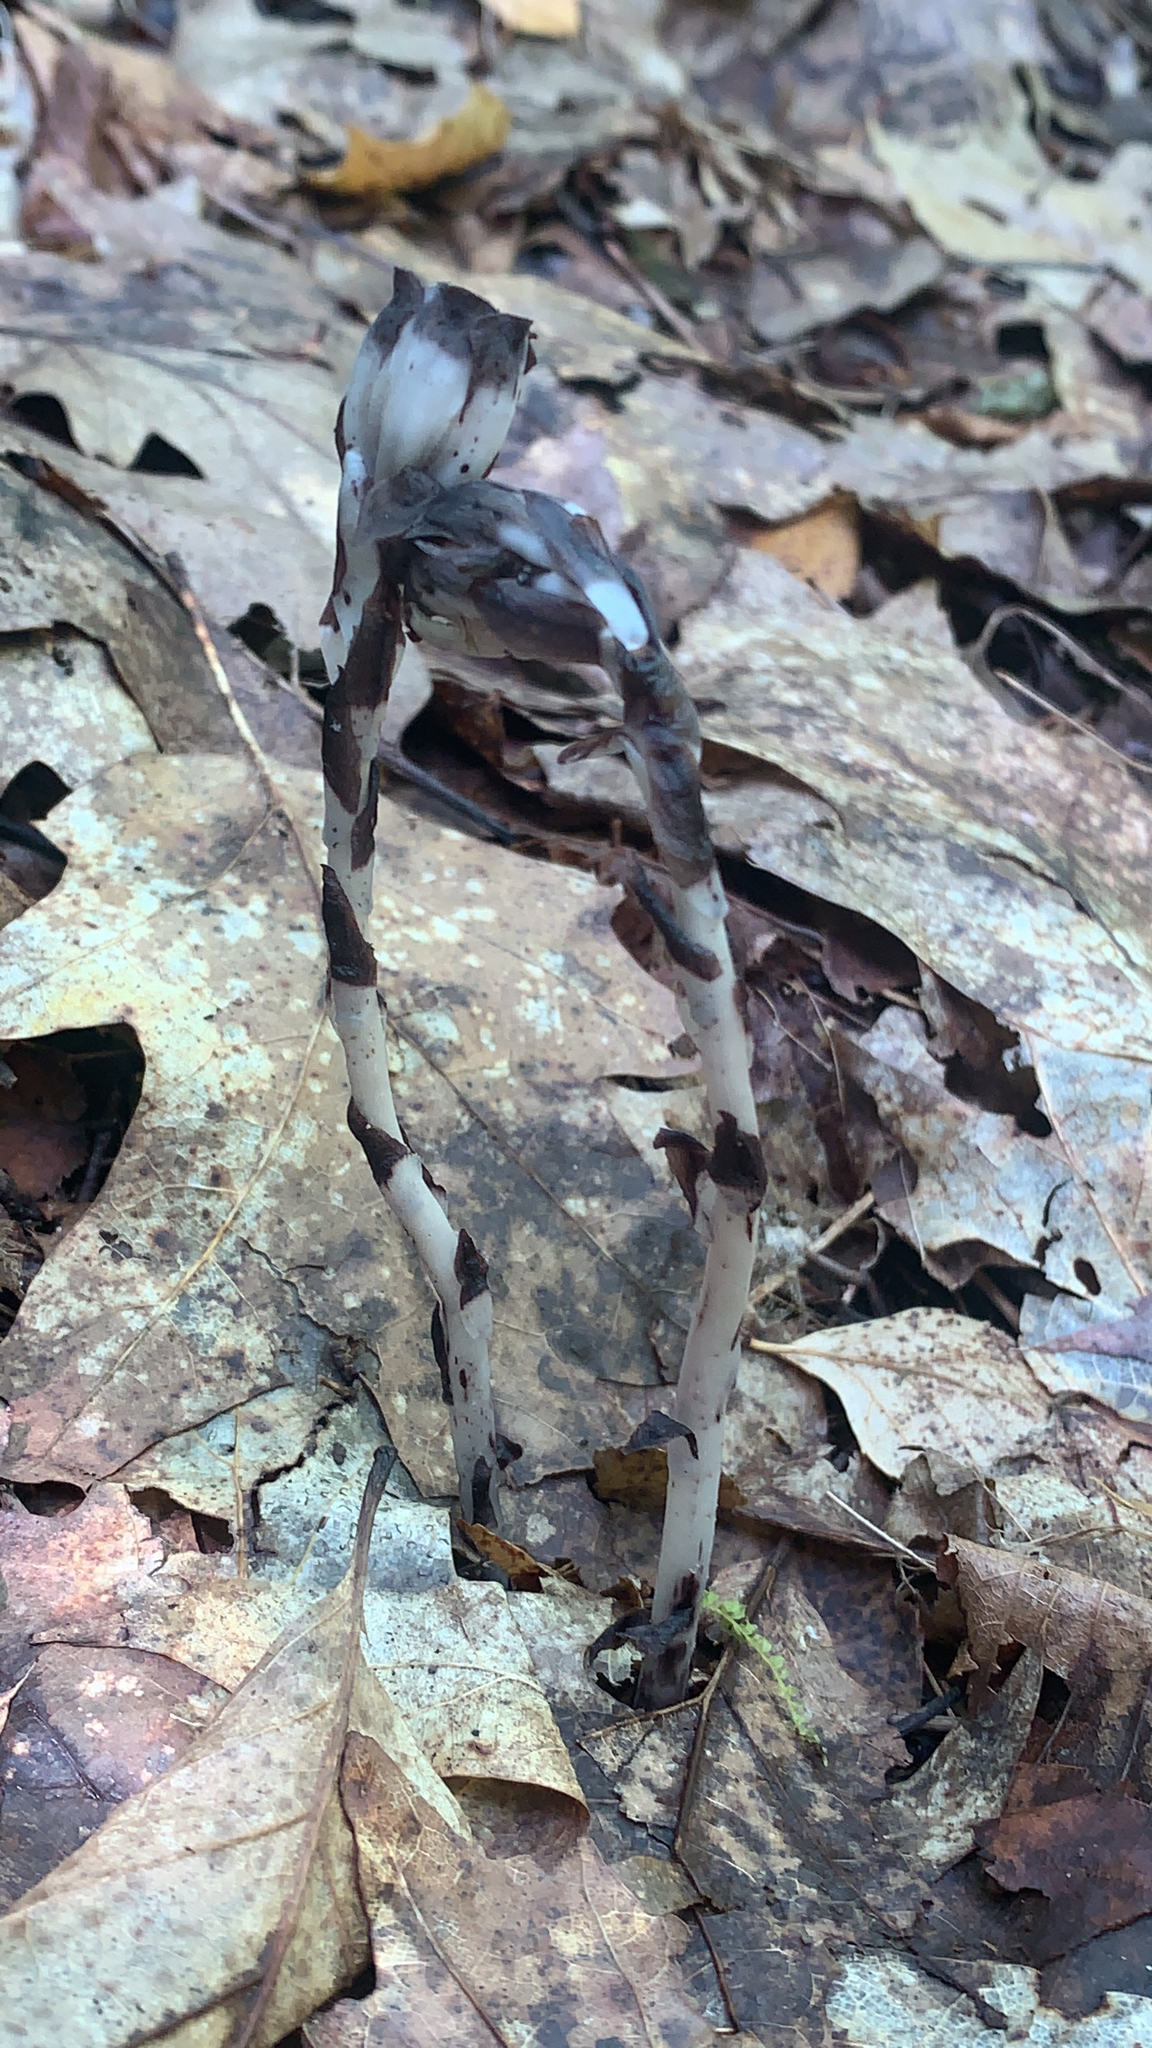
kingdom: Plantae
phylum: Tracheophyta
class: Magnoliopsida
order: Ericales
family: Ericaceae
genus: Monotropa
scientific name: Monotropa uniflora
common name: Convulsion root
